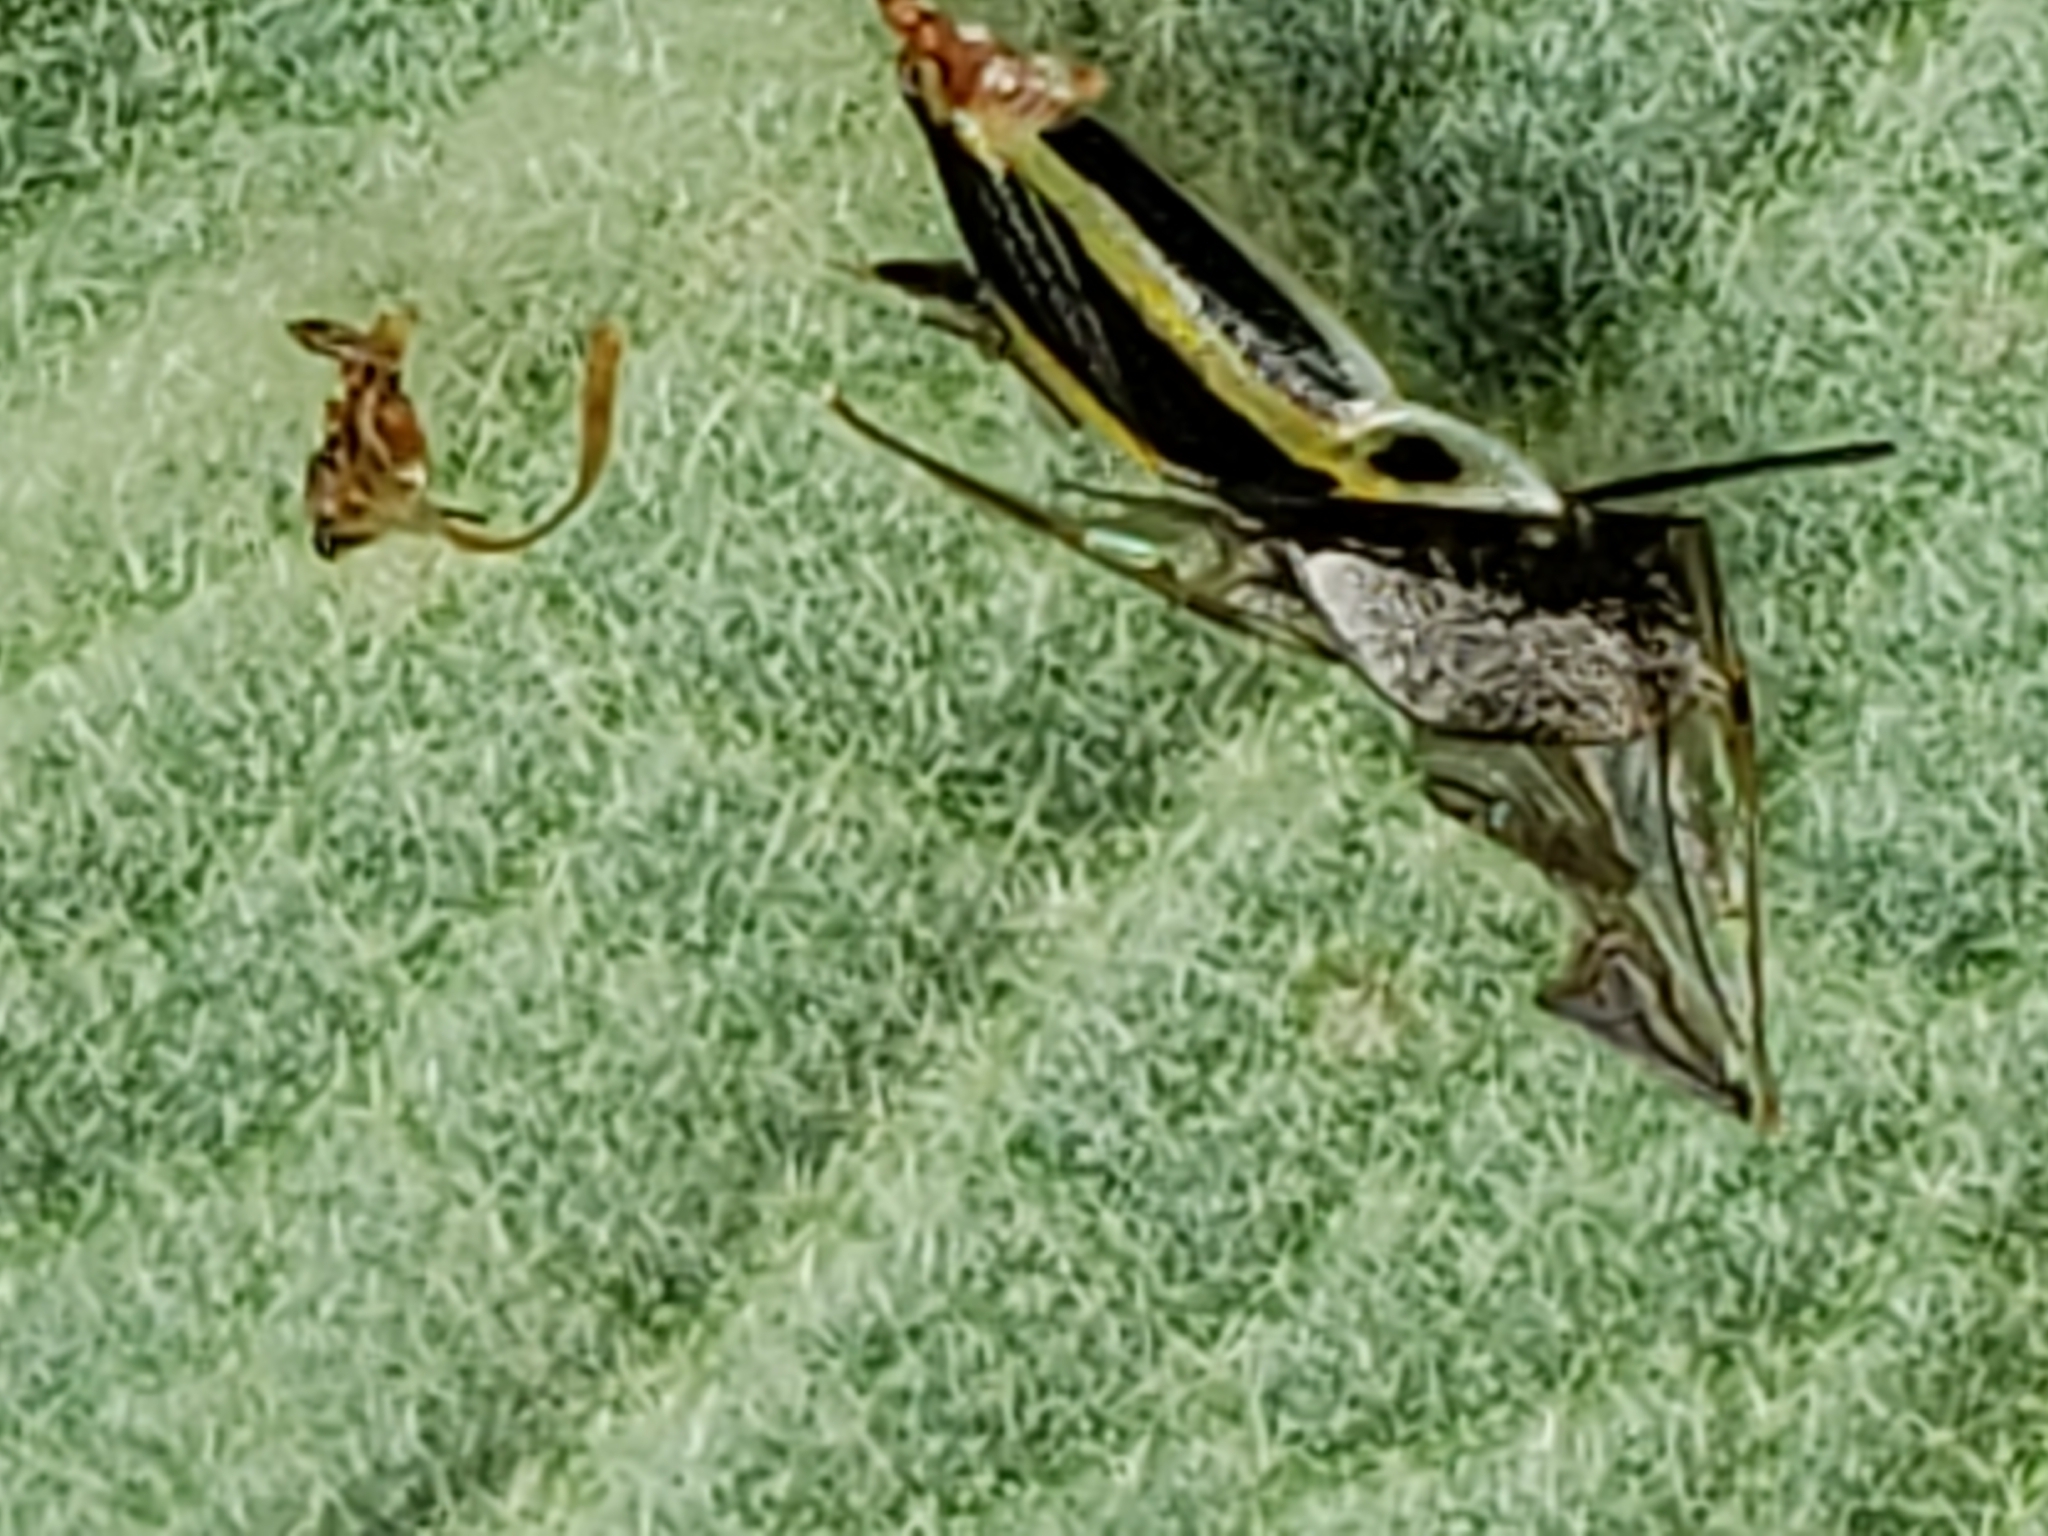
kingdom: Animalia
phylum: Arthropoda
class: Insecta
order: Hemiptera
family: Miridae
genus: Poecilocapsus
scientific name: Poecilocapsus lineatus
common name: Four-lined plant bug
